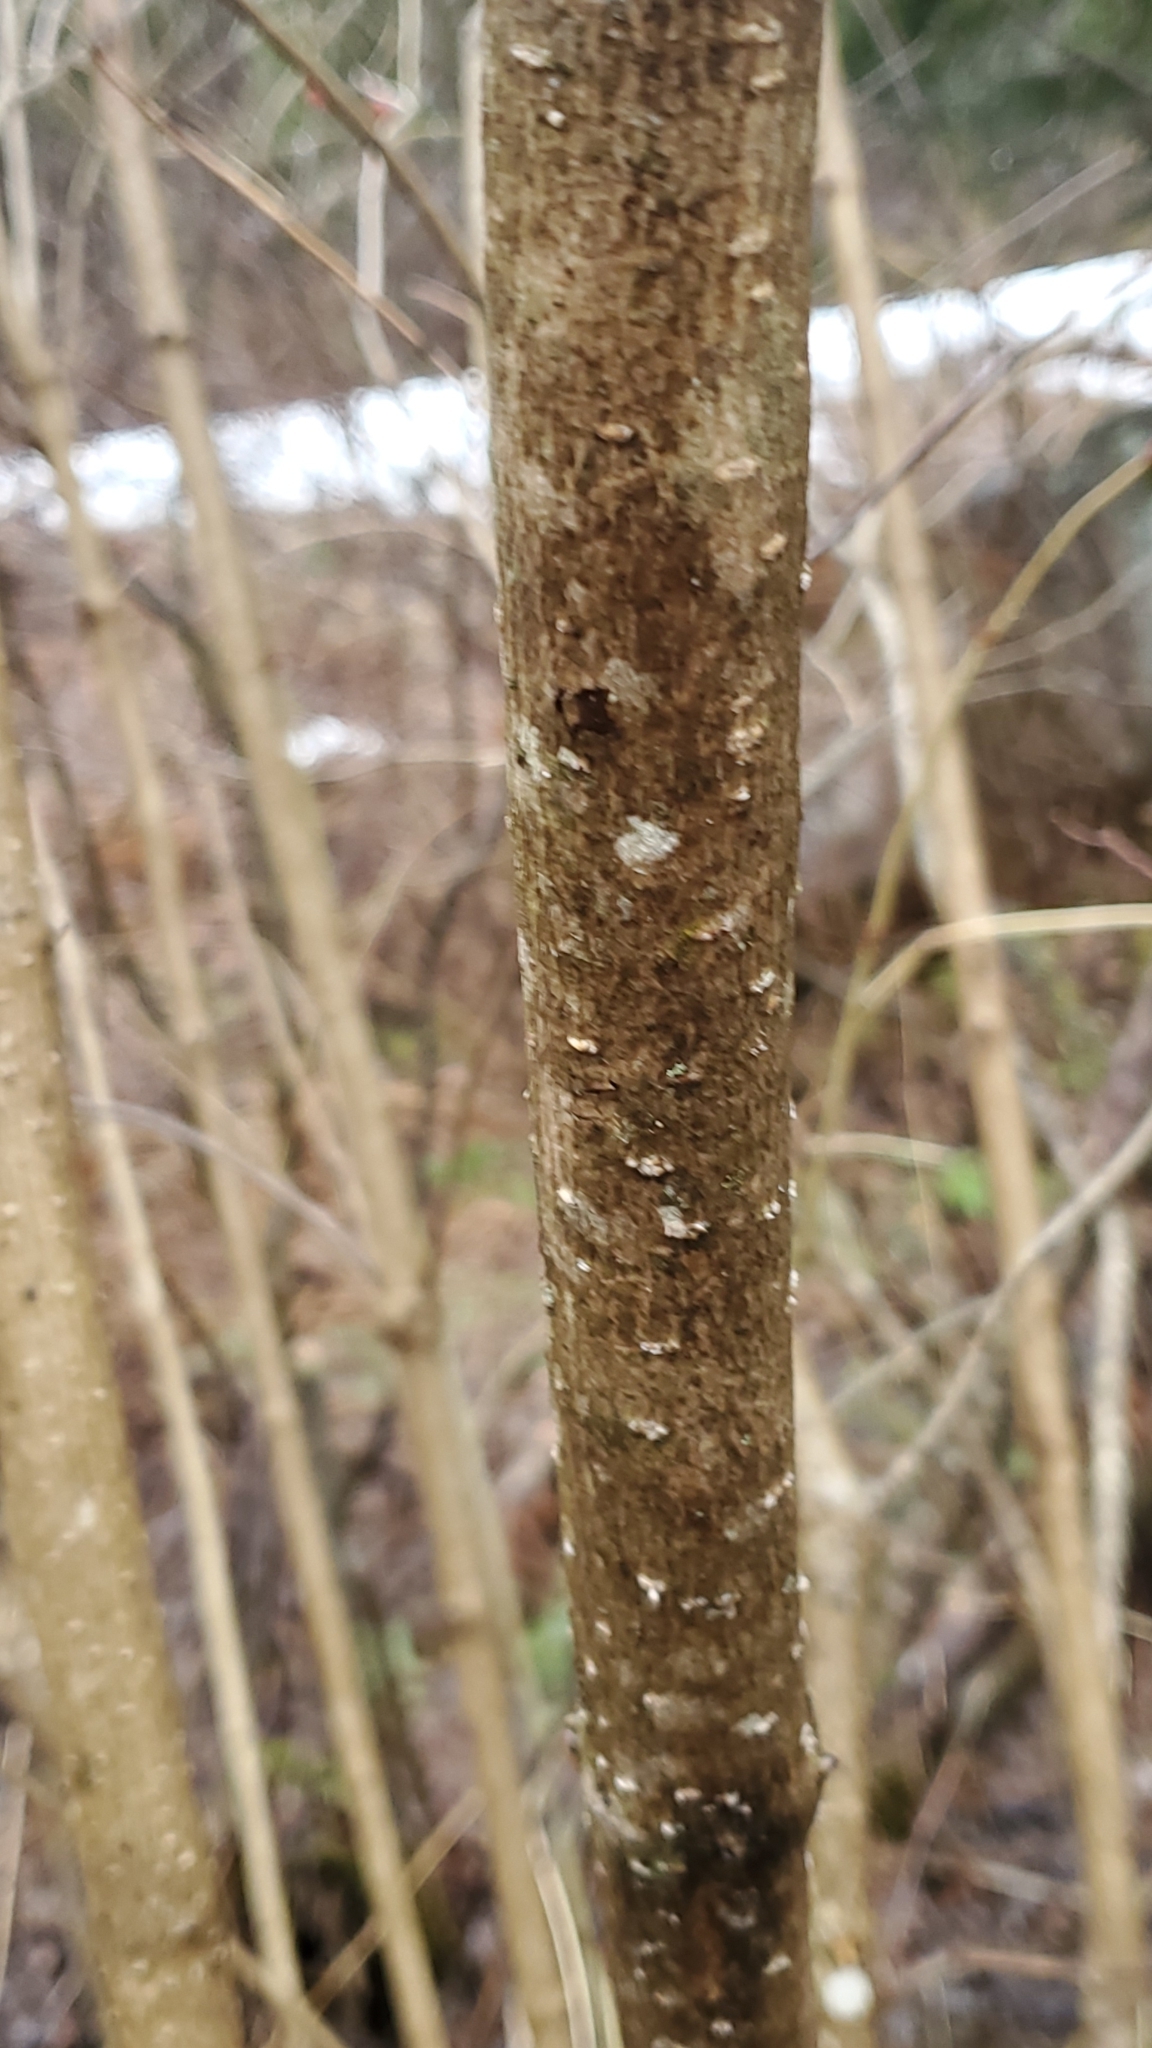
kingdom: Plantae
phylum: Tracheophyta
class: Magnoliopsida
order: Dipsacales
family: Viburnaceae
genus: Viburnum
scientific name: Viburnum opulus
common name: Guelder-rose
